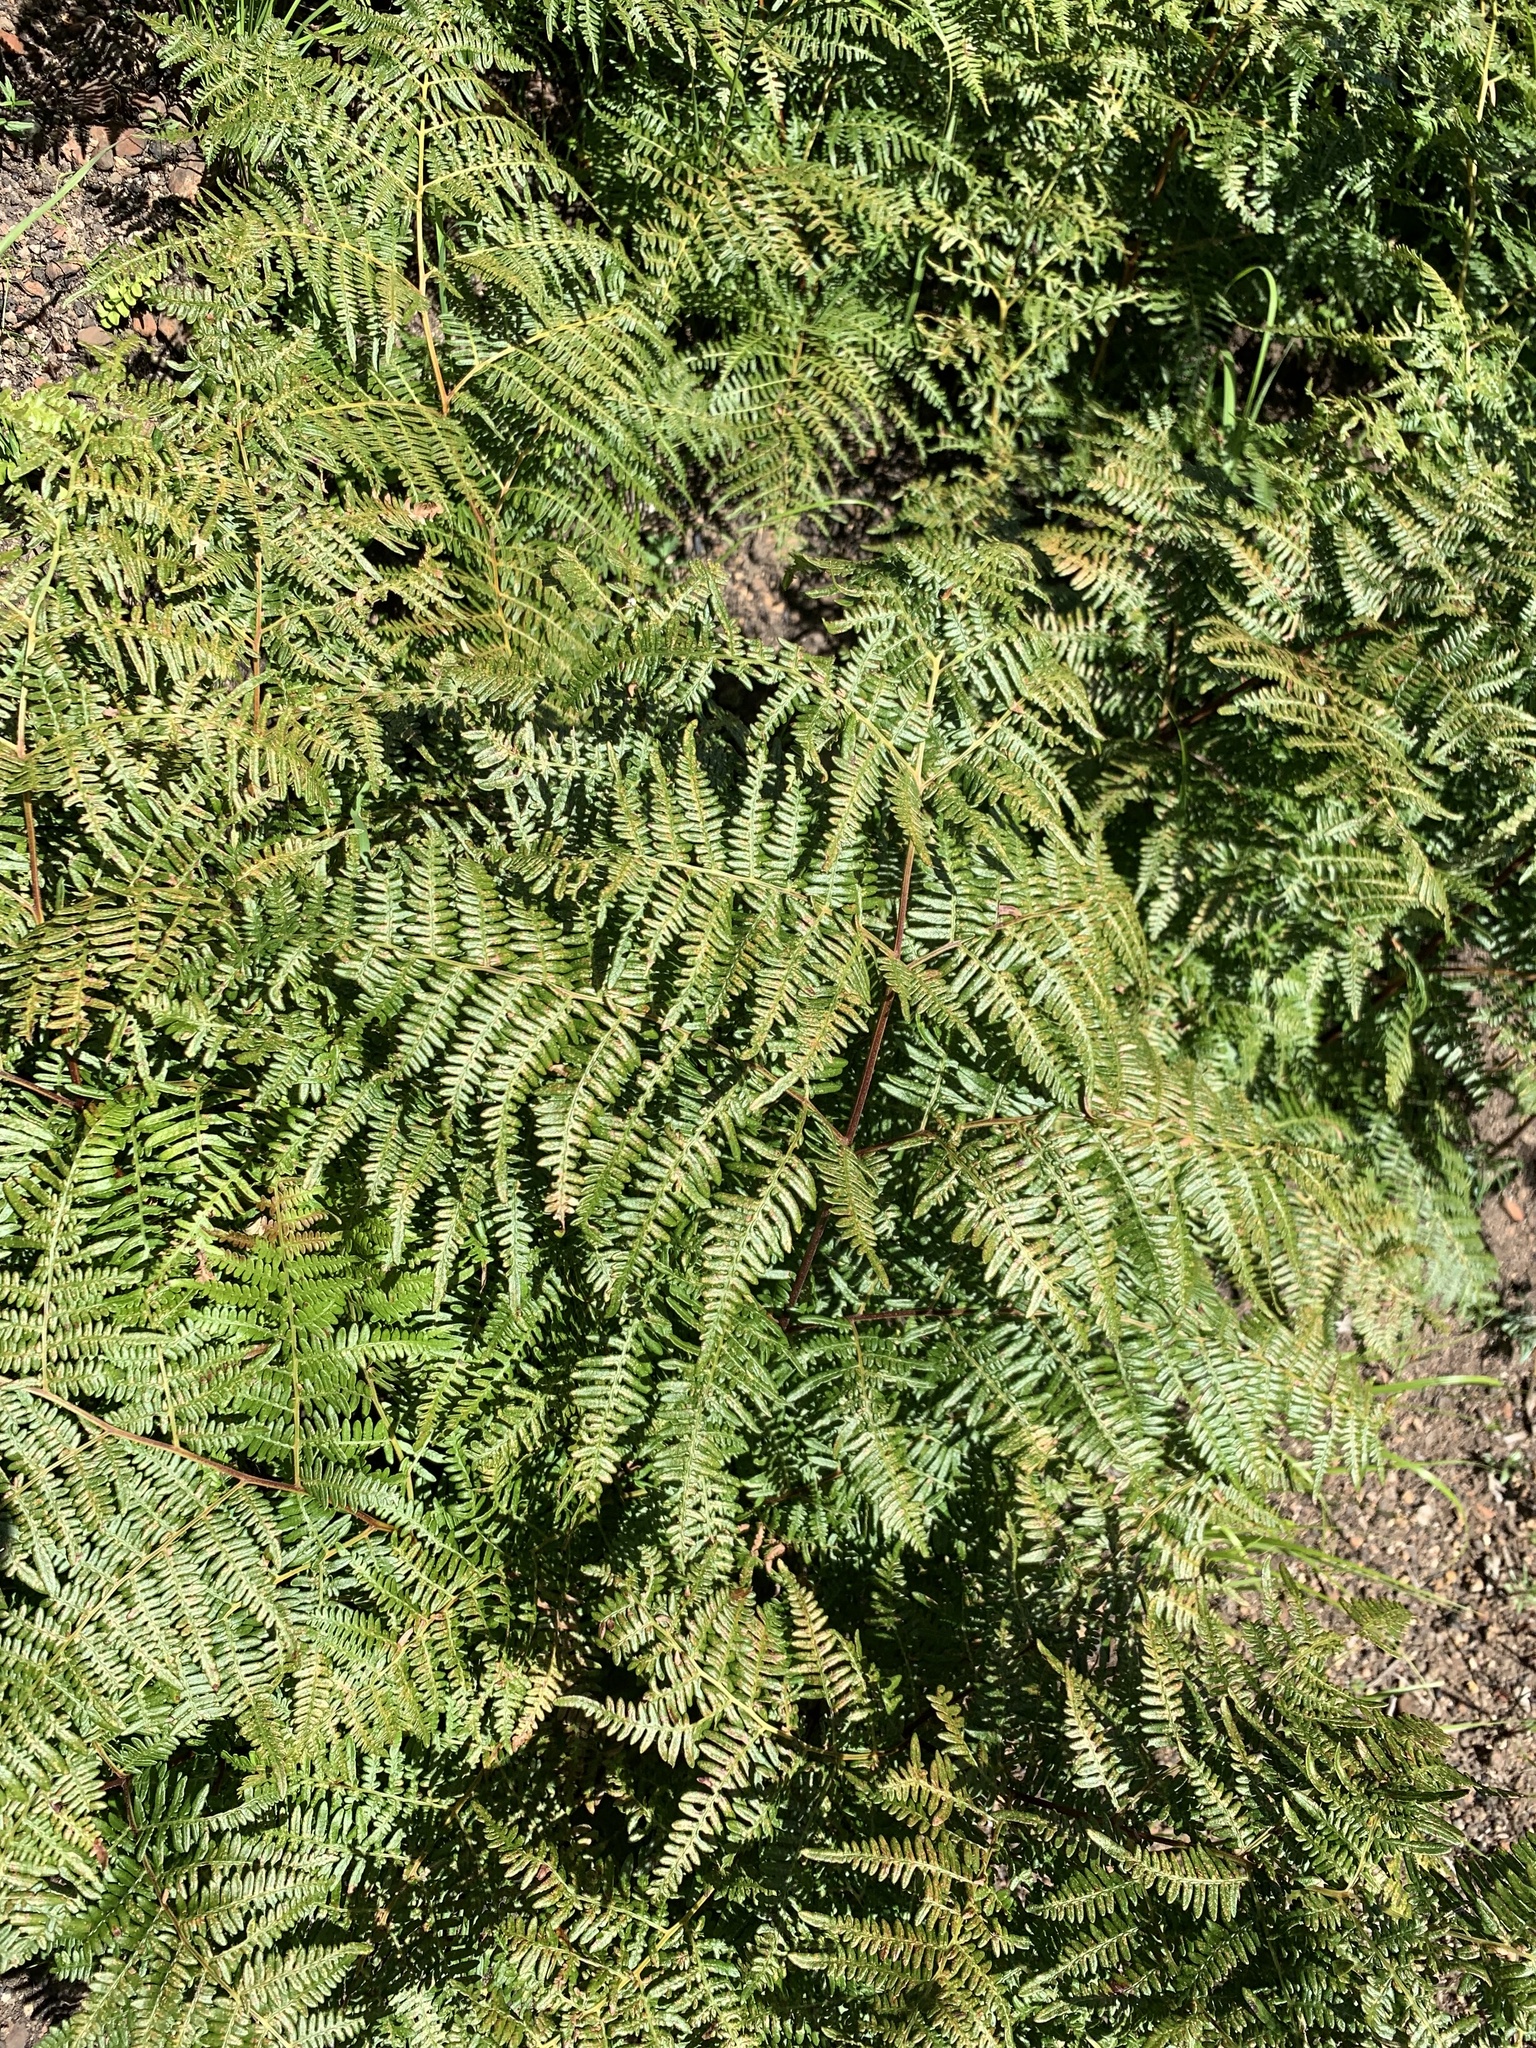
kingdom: Plantae
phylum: Tracheophyta
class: Polypodiopsida
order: Polypodiales
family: Dennstaedtiaceae
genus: Pteridium
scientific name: Pteridium aquilinum
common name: Bracken
